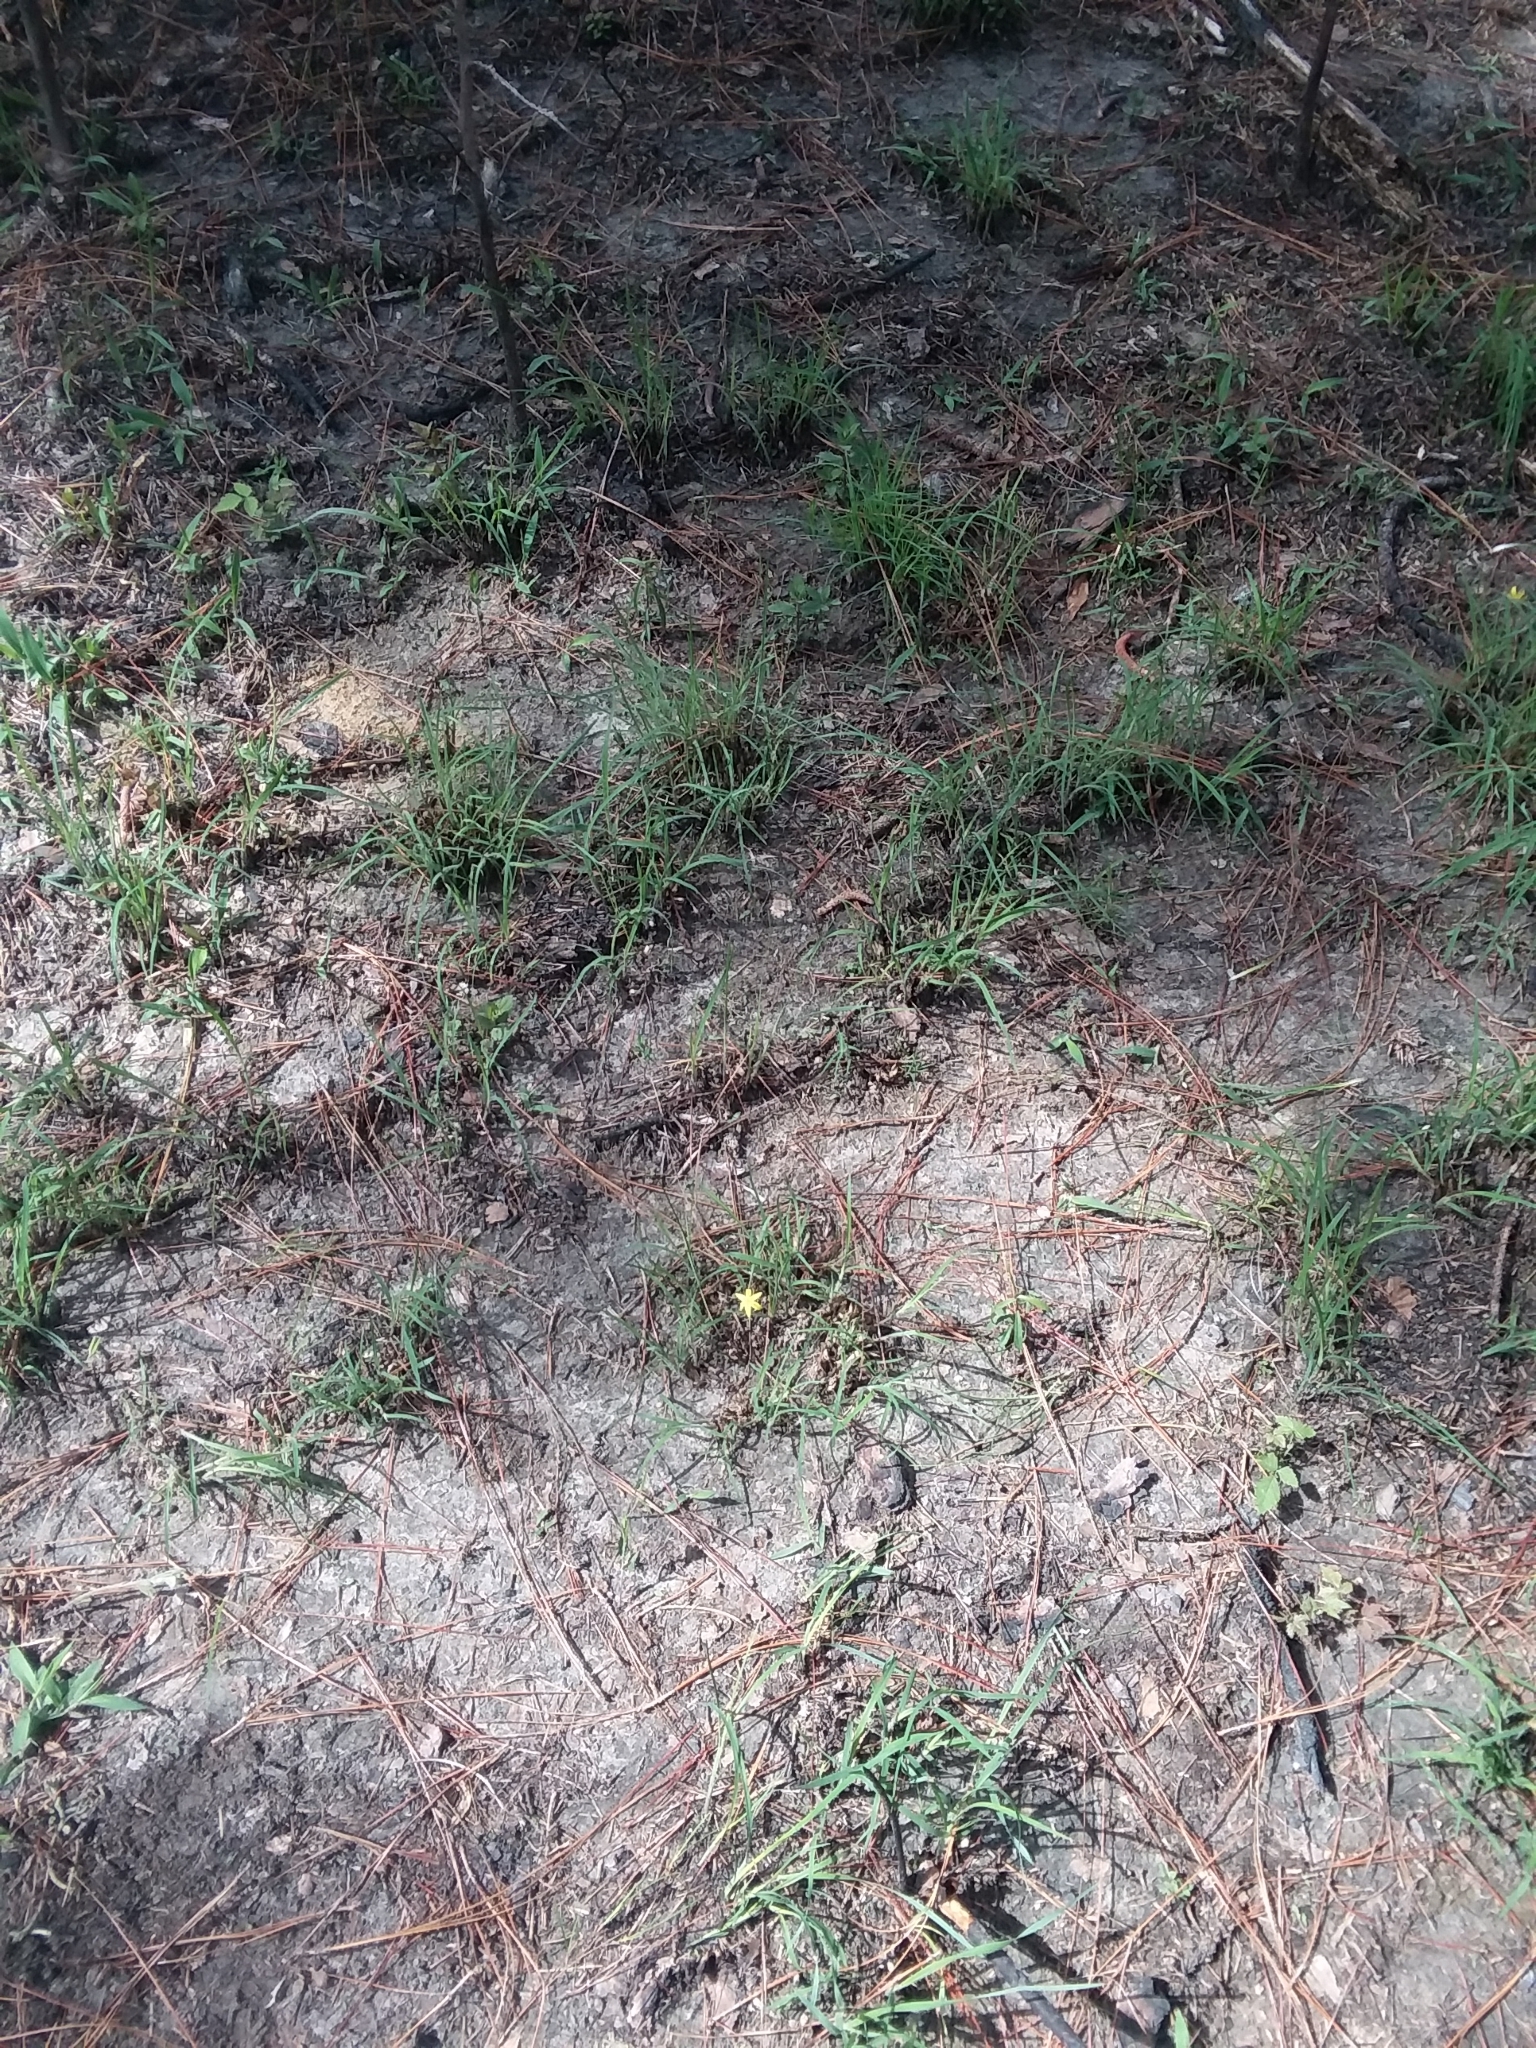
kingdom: Plantae
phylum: Tracheophyta
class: Liliopsida
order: Asparagales
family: Hypoxidaceae
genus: Hypoxis
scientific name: Hypoxis hirsuta
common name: Common goldstar
